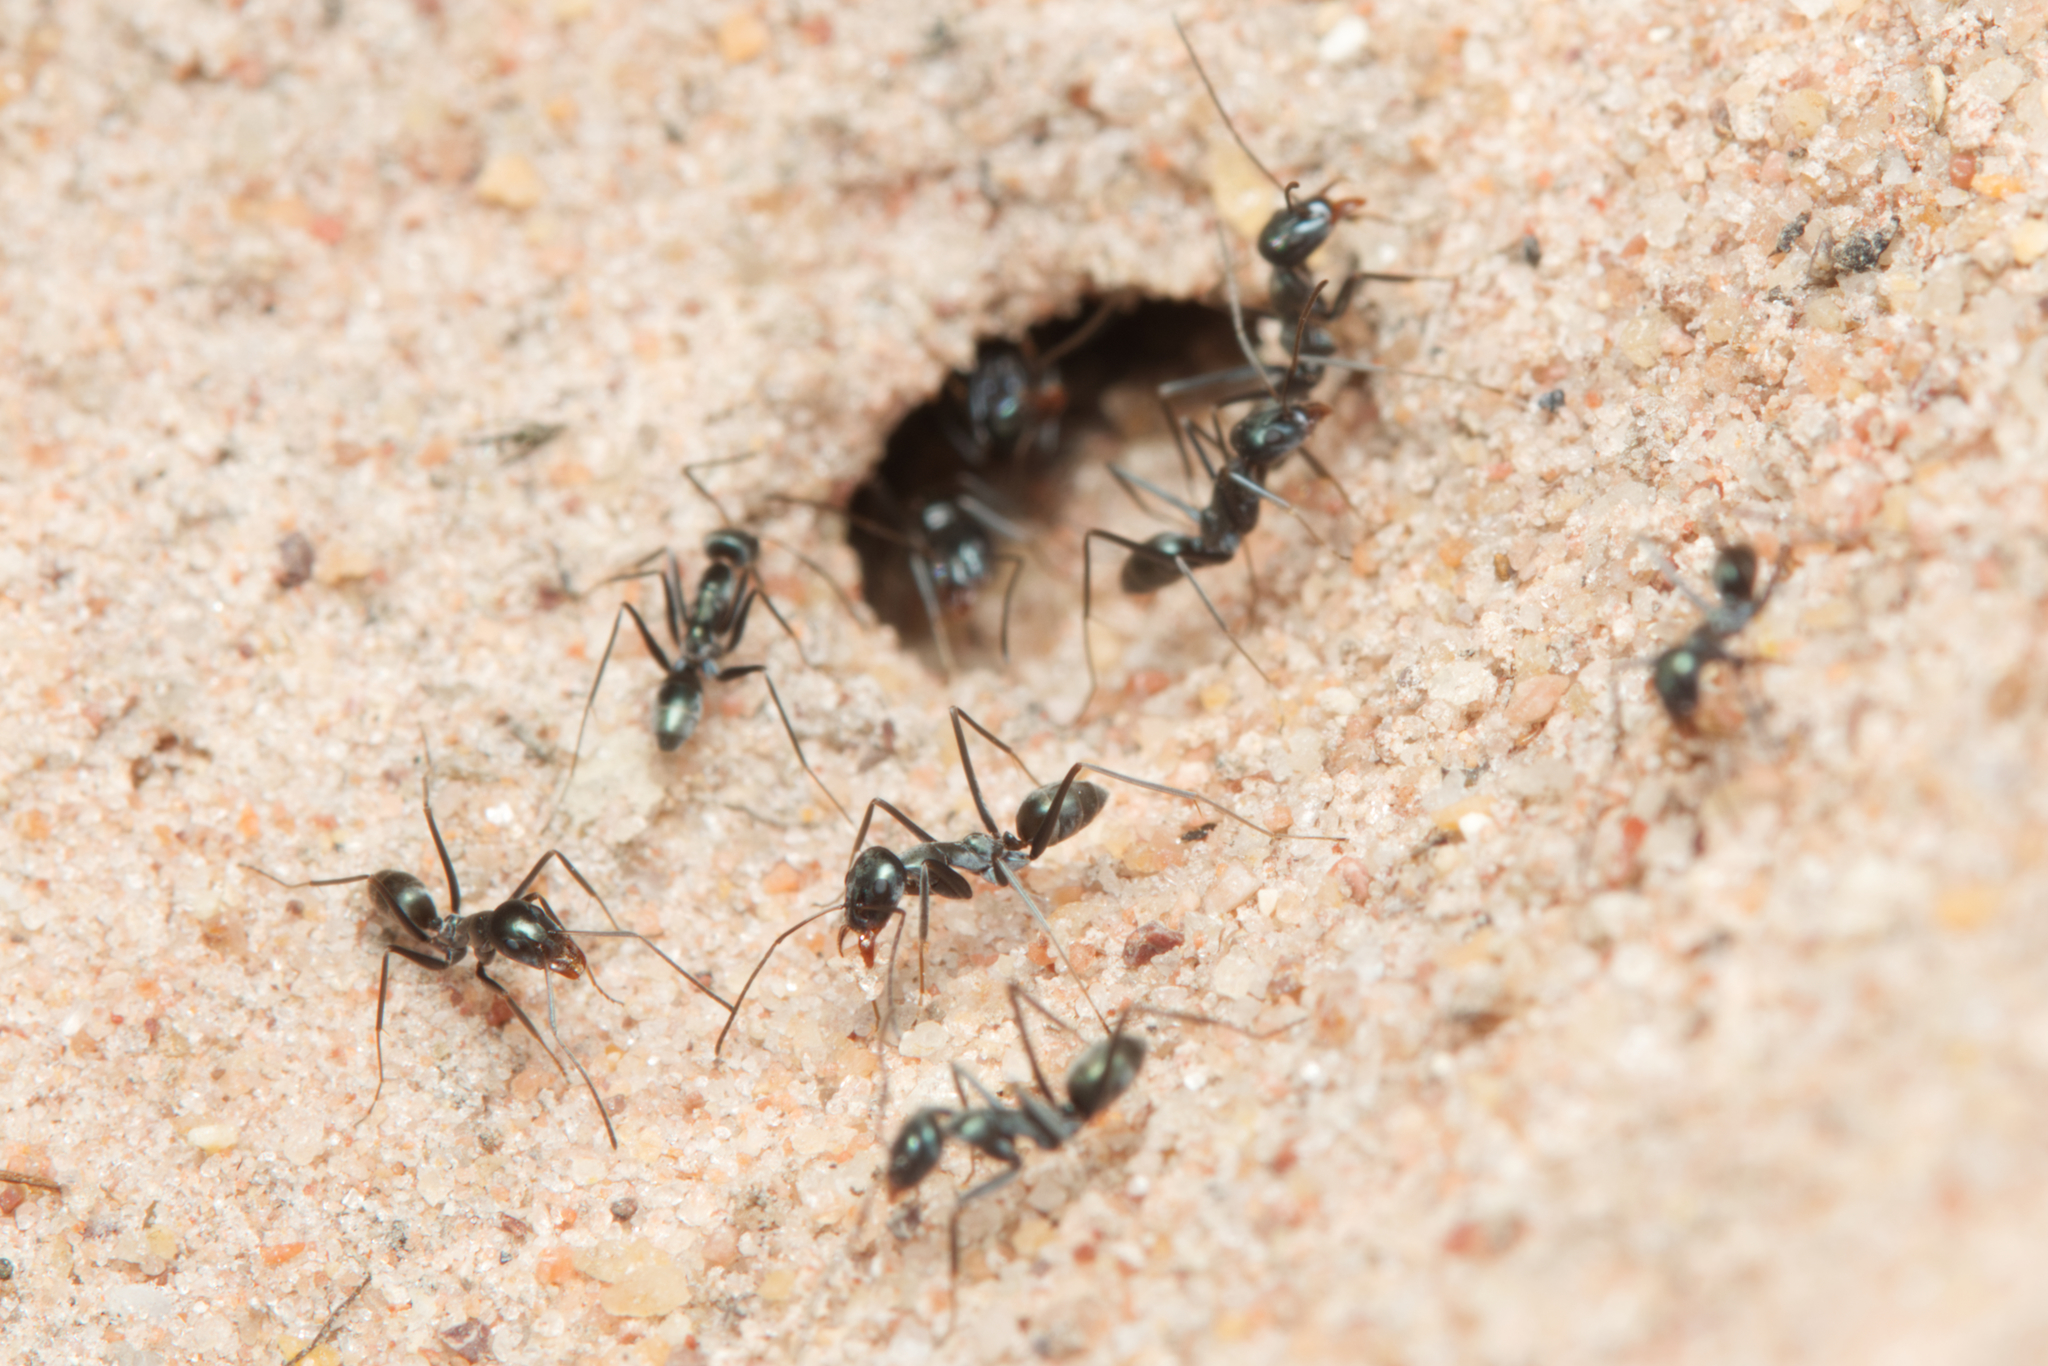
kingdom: Animalia
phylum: Arthropoda
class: Insecta
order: Hymenoptera
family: Formicidae
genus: Iridomyrmex
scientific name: Iridomyrmex bicknelli
